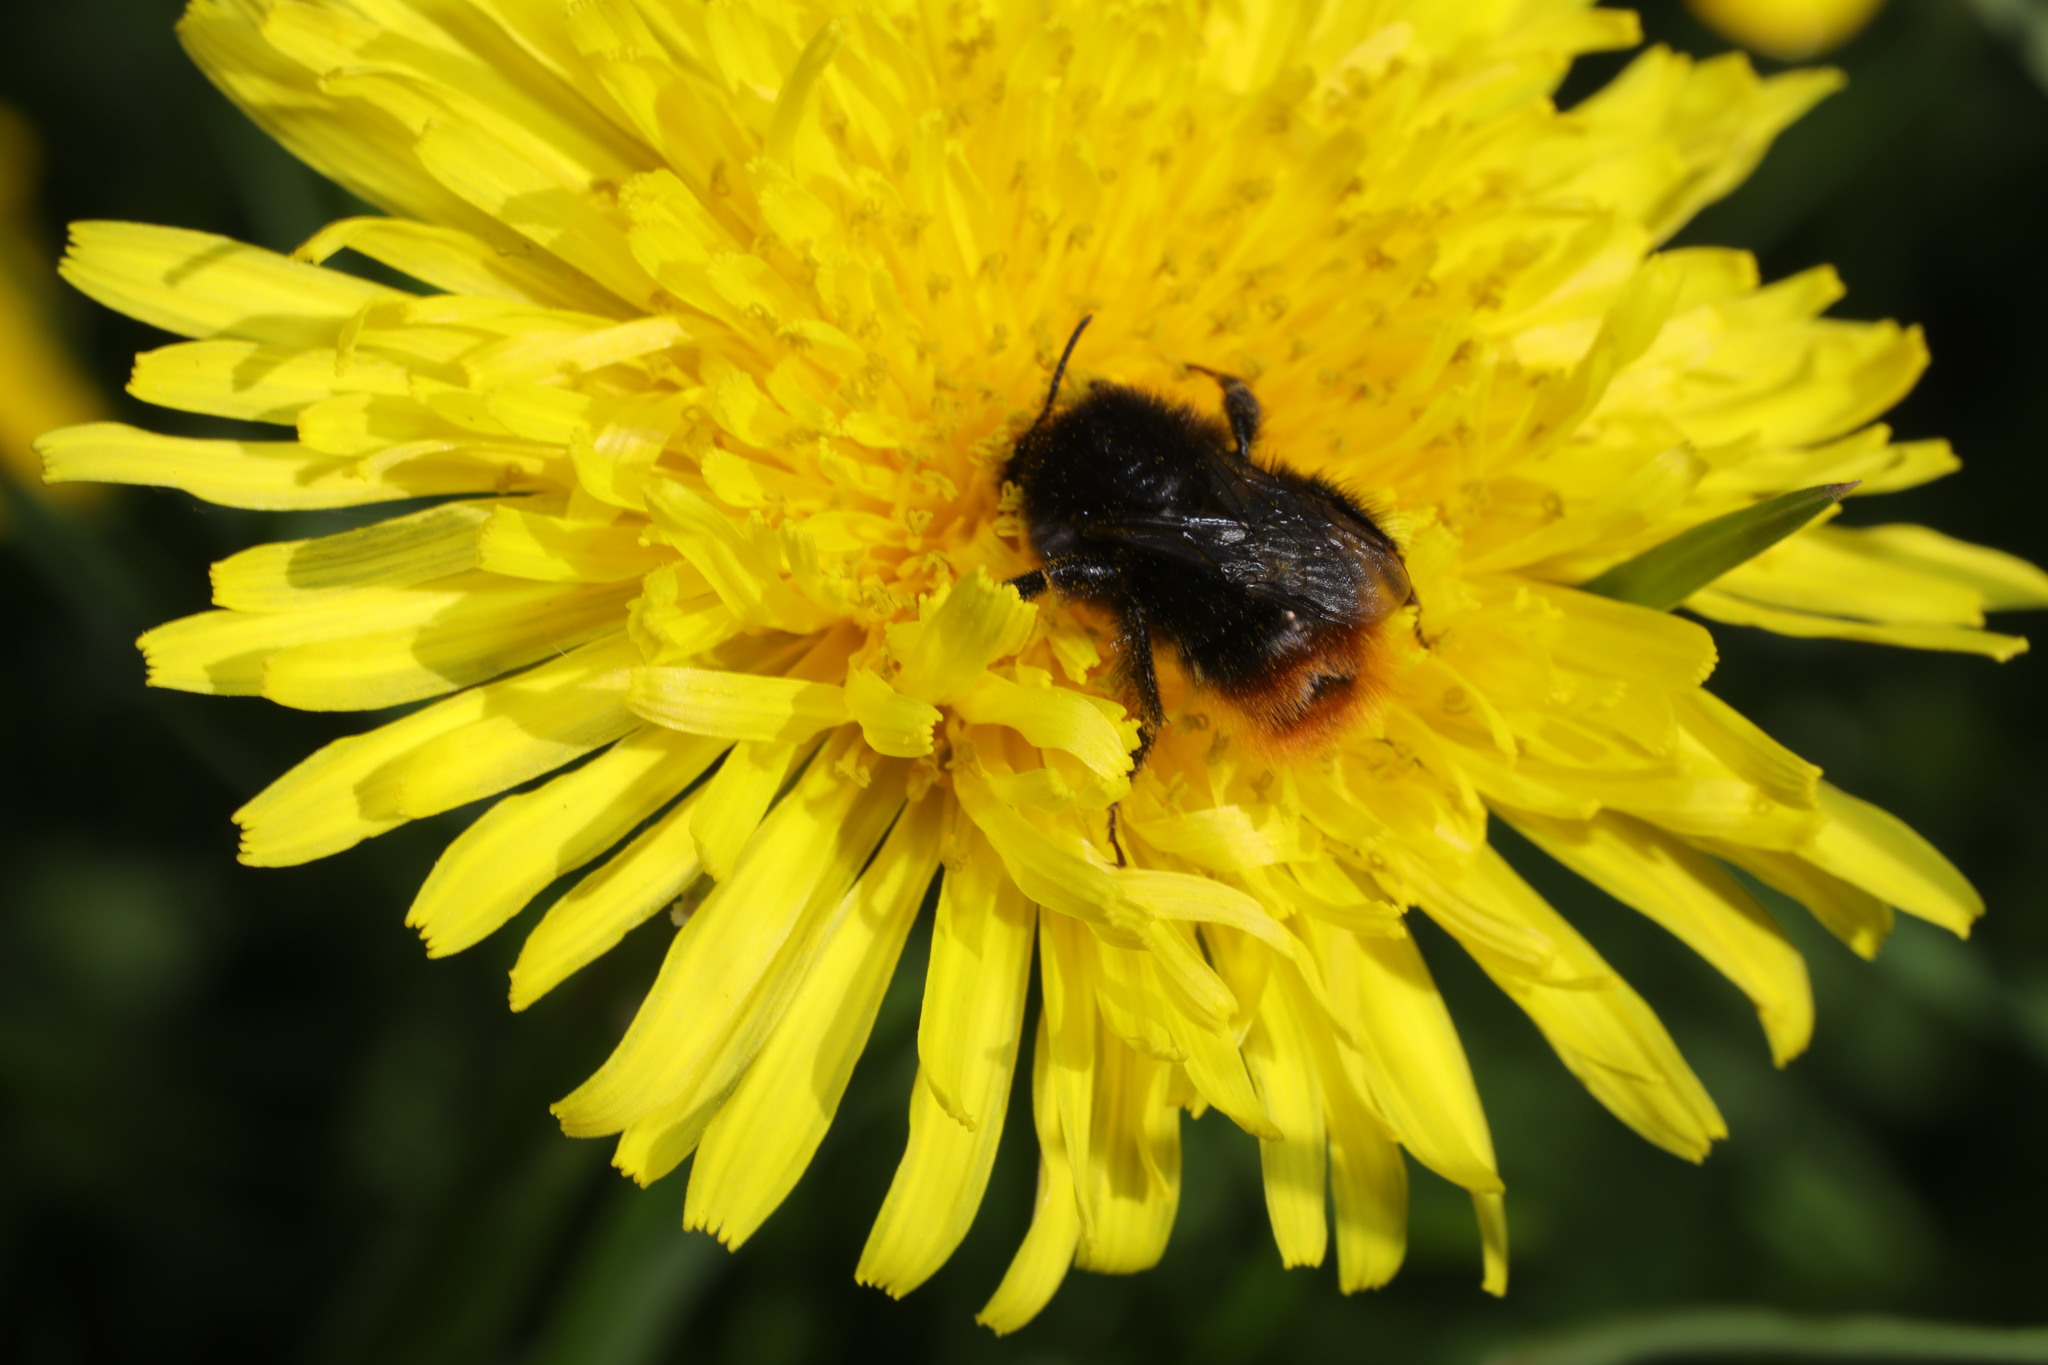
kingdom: Animalia
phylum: Arthropoda
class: Insecta
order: Hymenoptera
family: Apidae
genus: Bombus
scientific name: Bombus lapidarius
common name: Large red-tailed humble-bee
